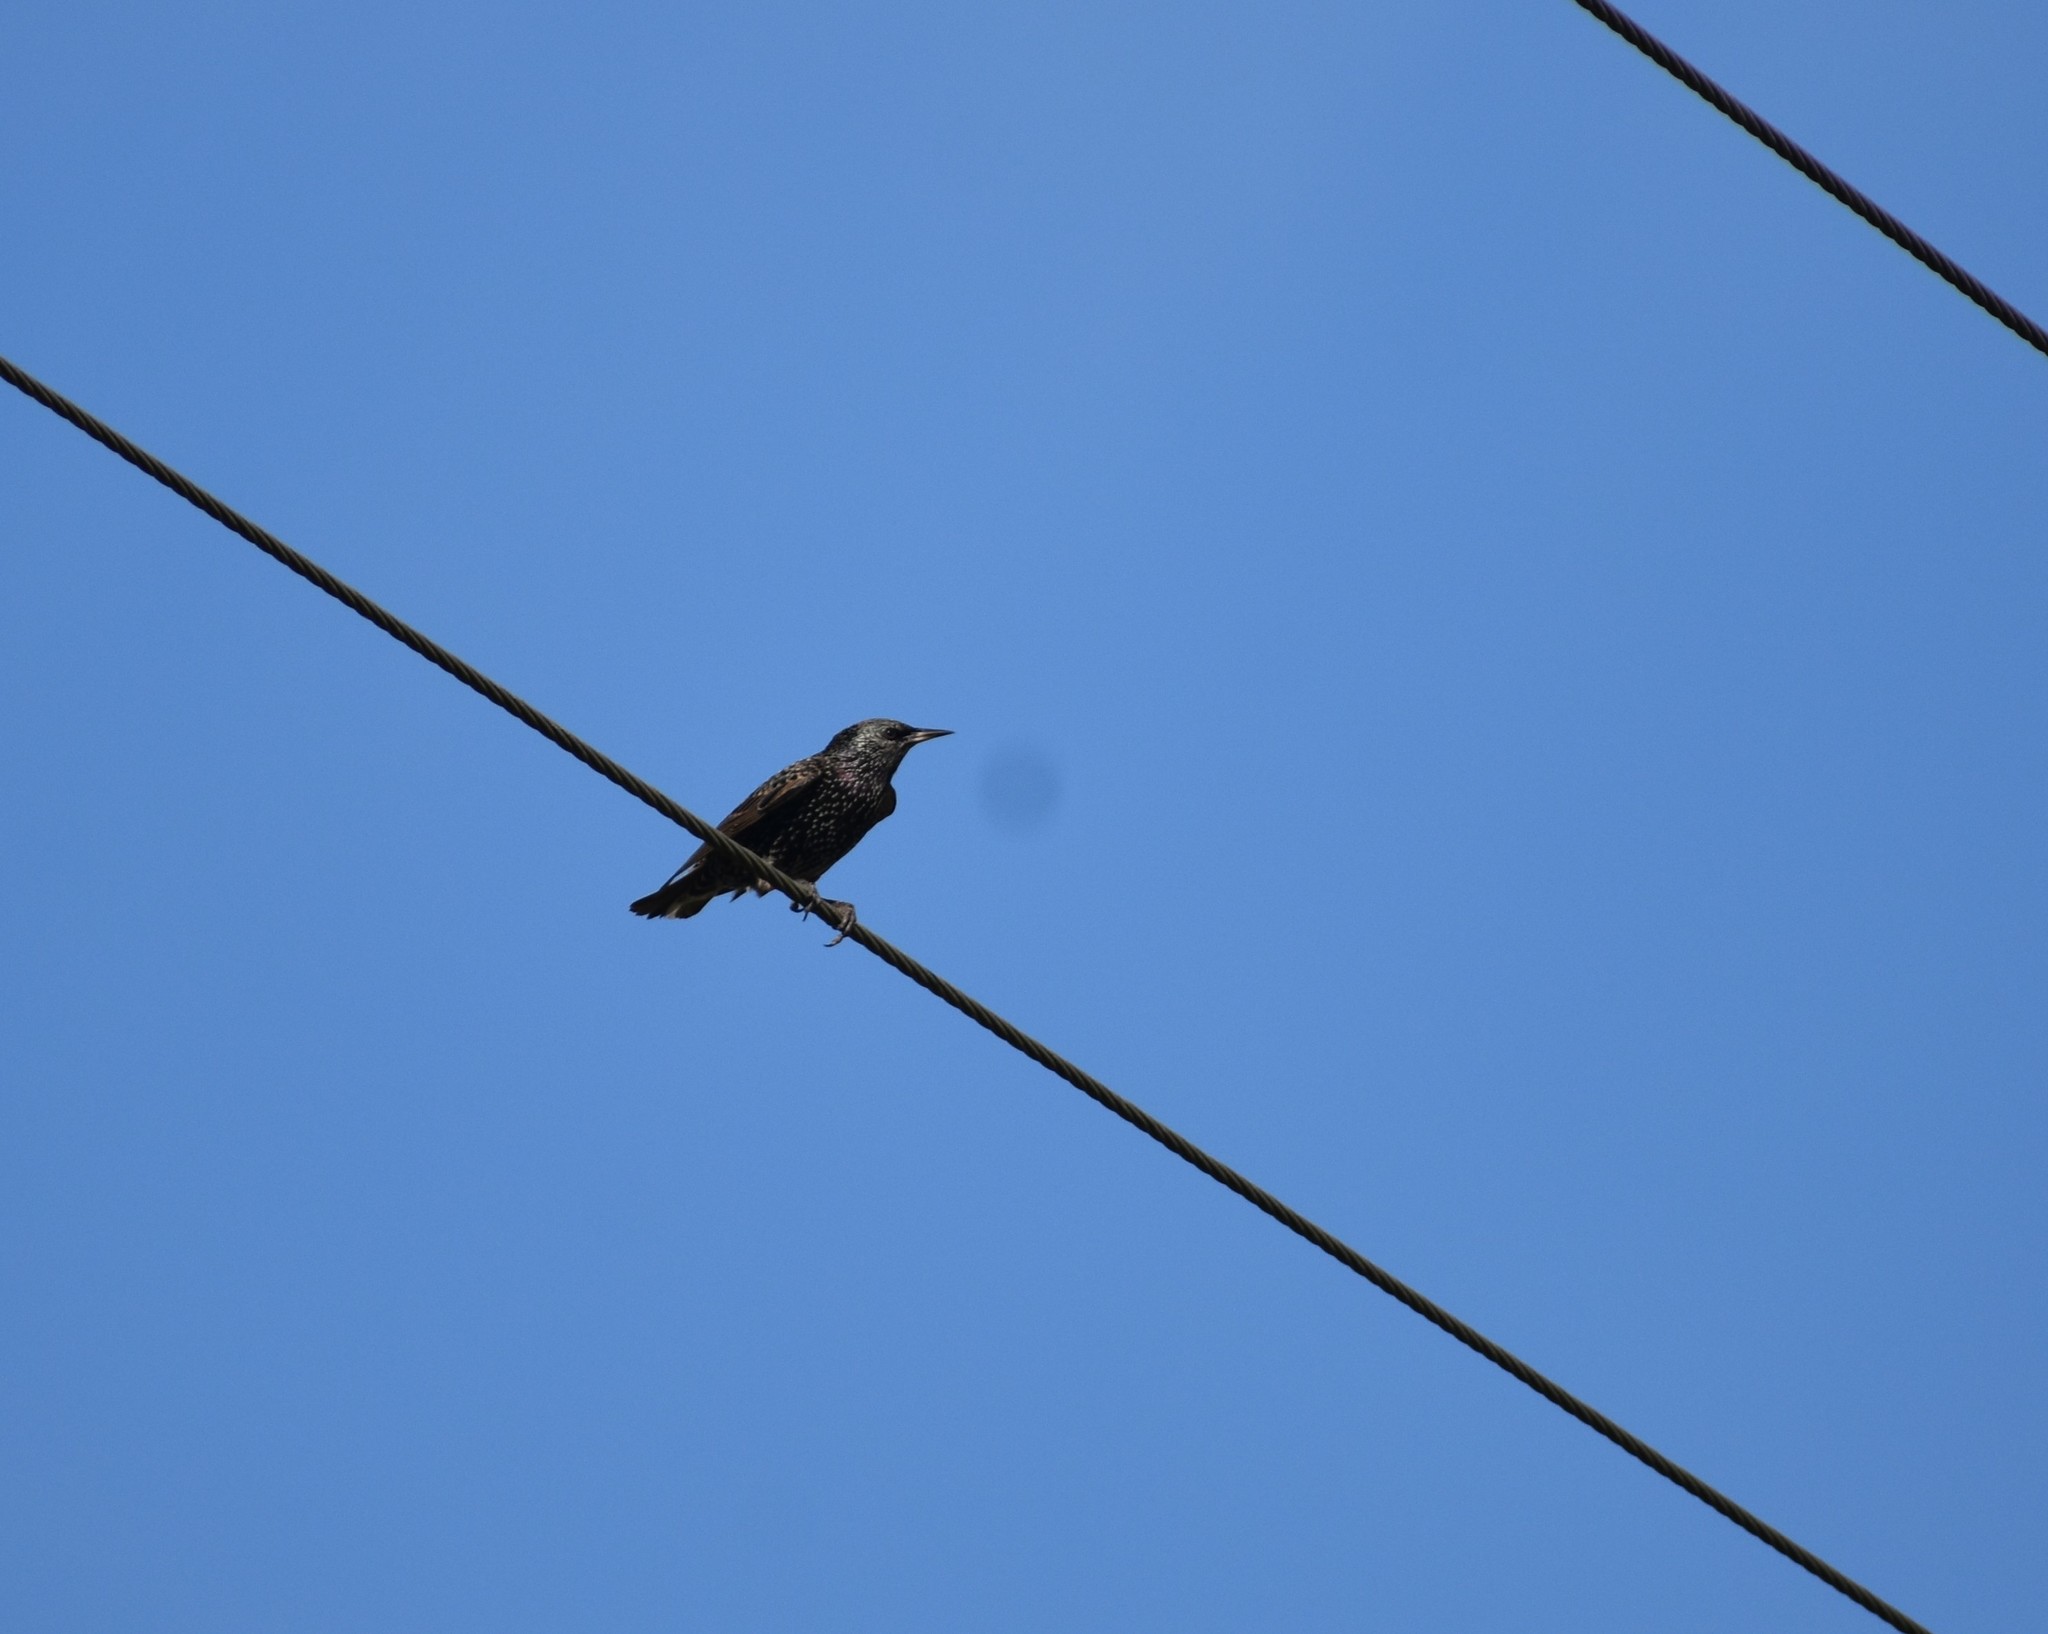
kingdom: Animalia
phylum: Chordata
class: Aves
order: Passeriformes
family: Sturnidae
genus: Sturnus
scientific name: Sturnus vulgaris
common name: Common starling
